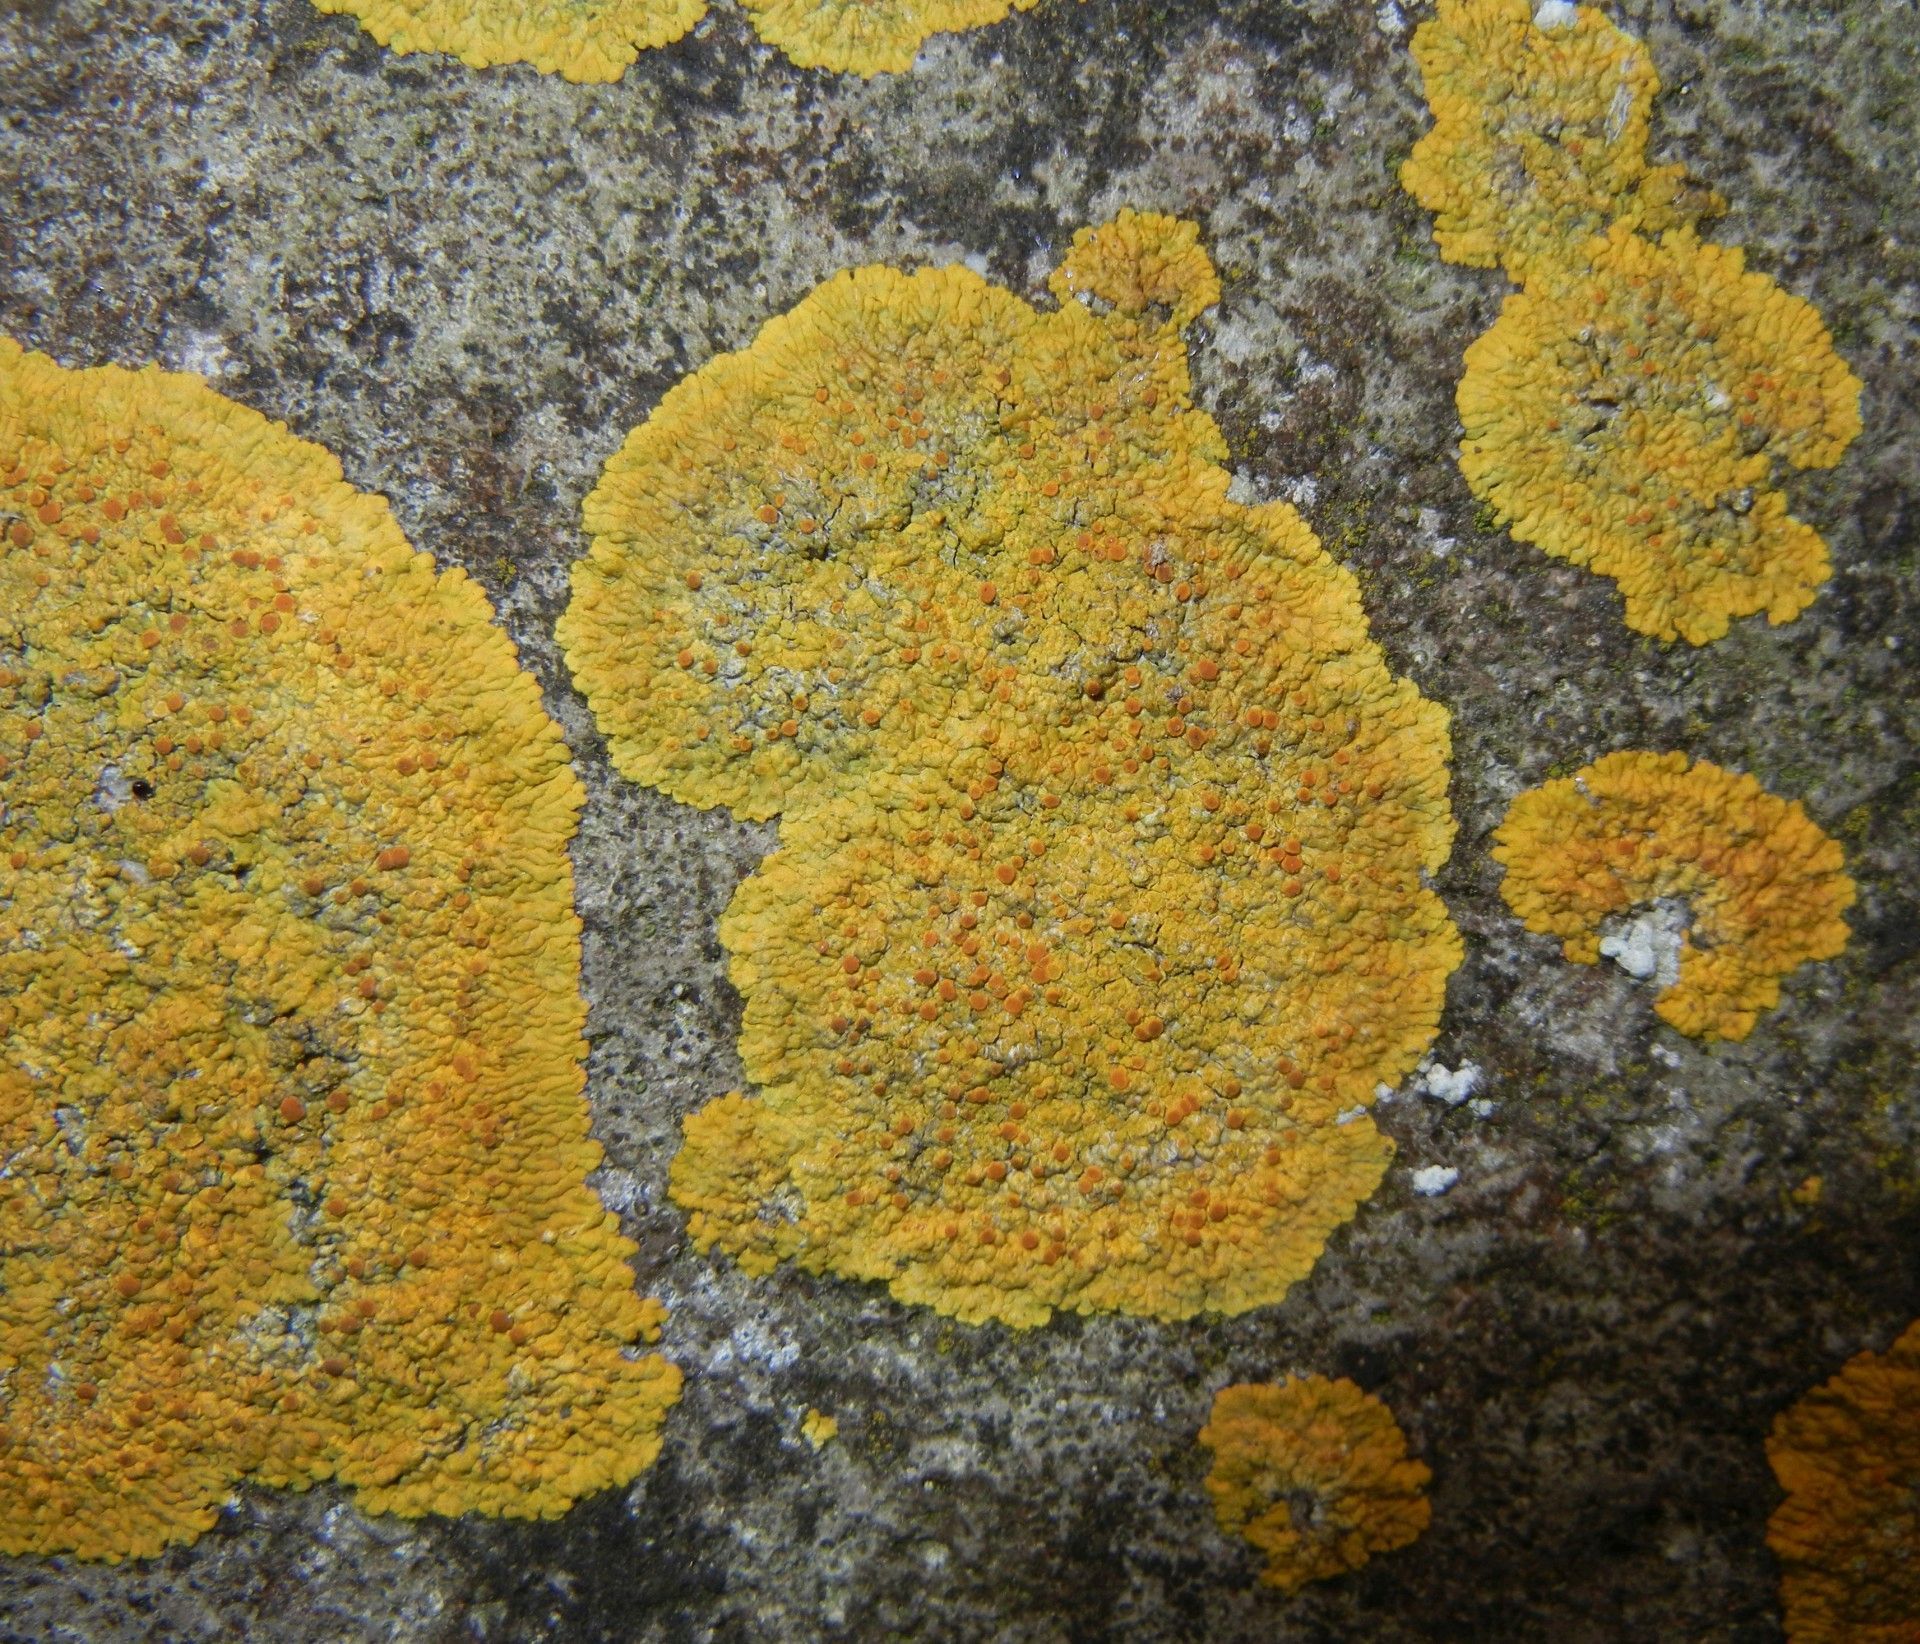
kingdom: Fungi
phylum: Ascomycota
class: Lecanoromycetes
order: Teloschistales
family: Teloschistaceae
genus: Variospora
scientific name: Variospora flavescens
